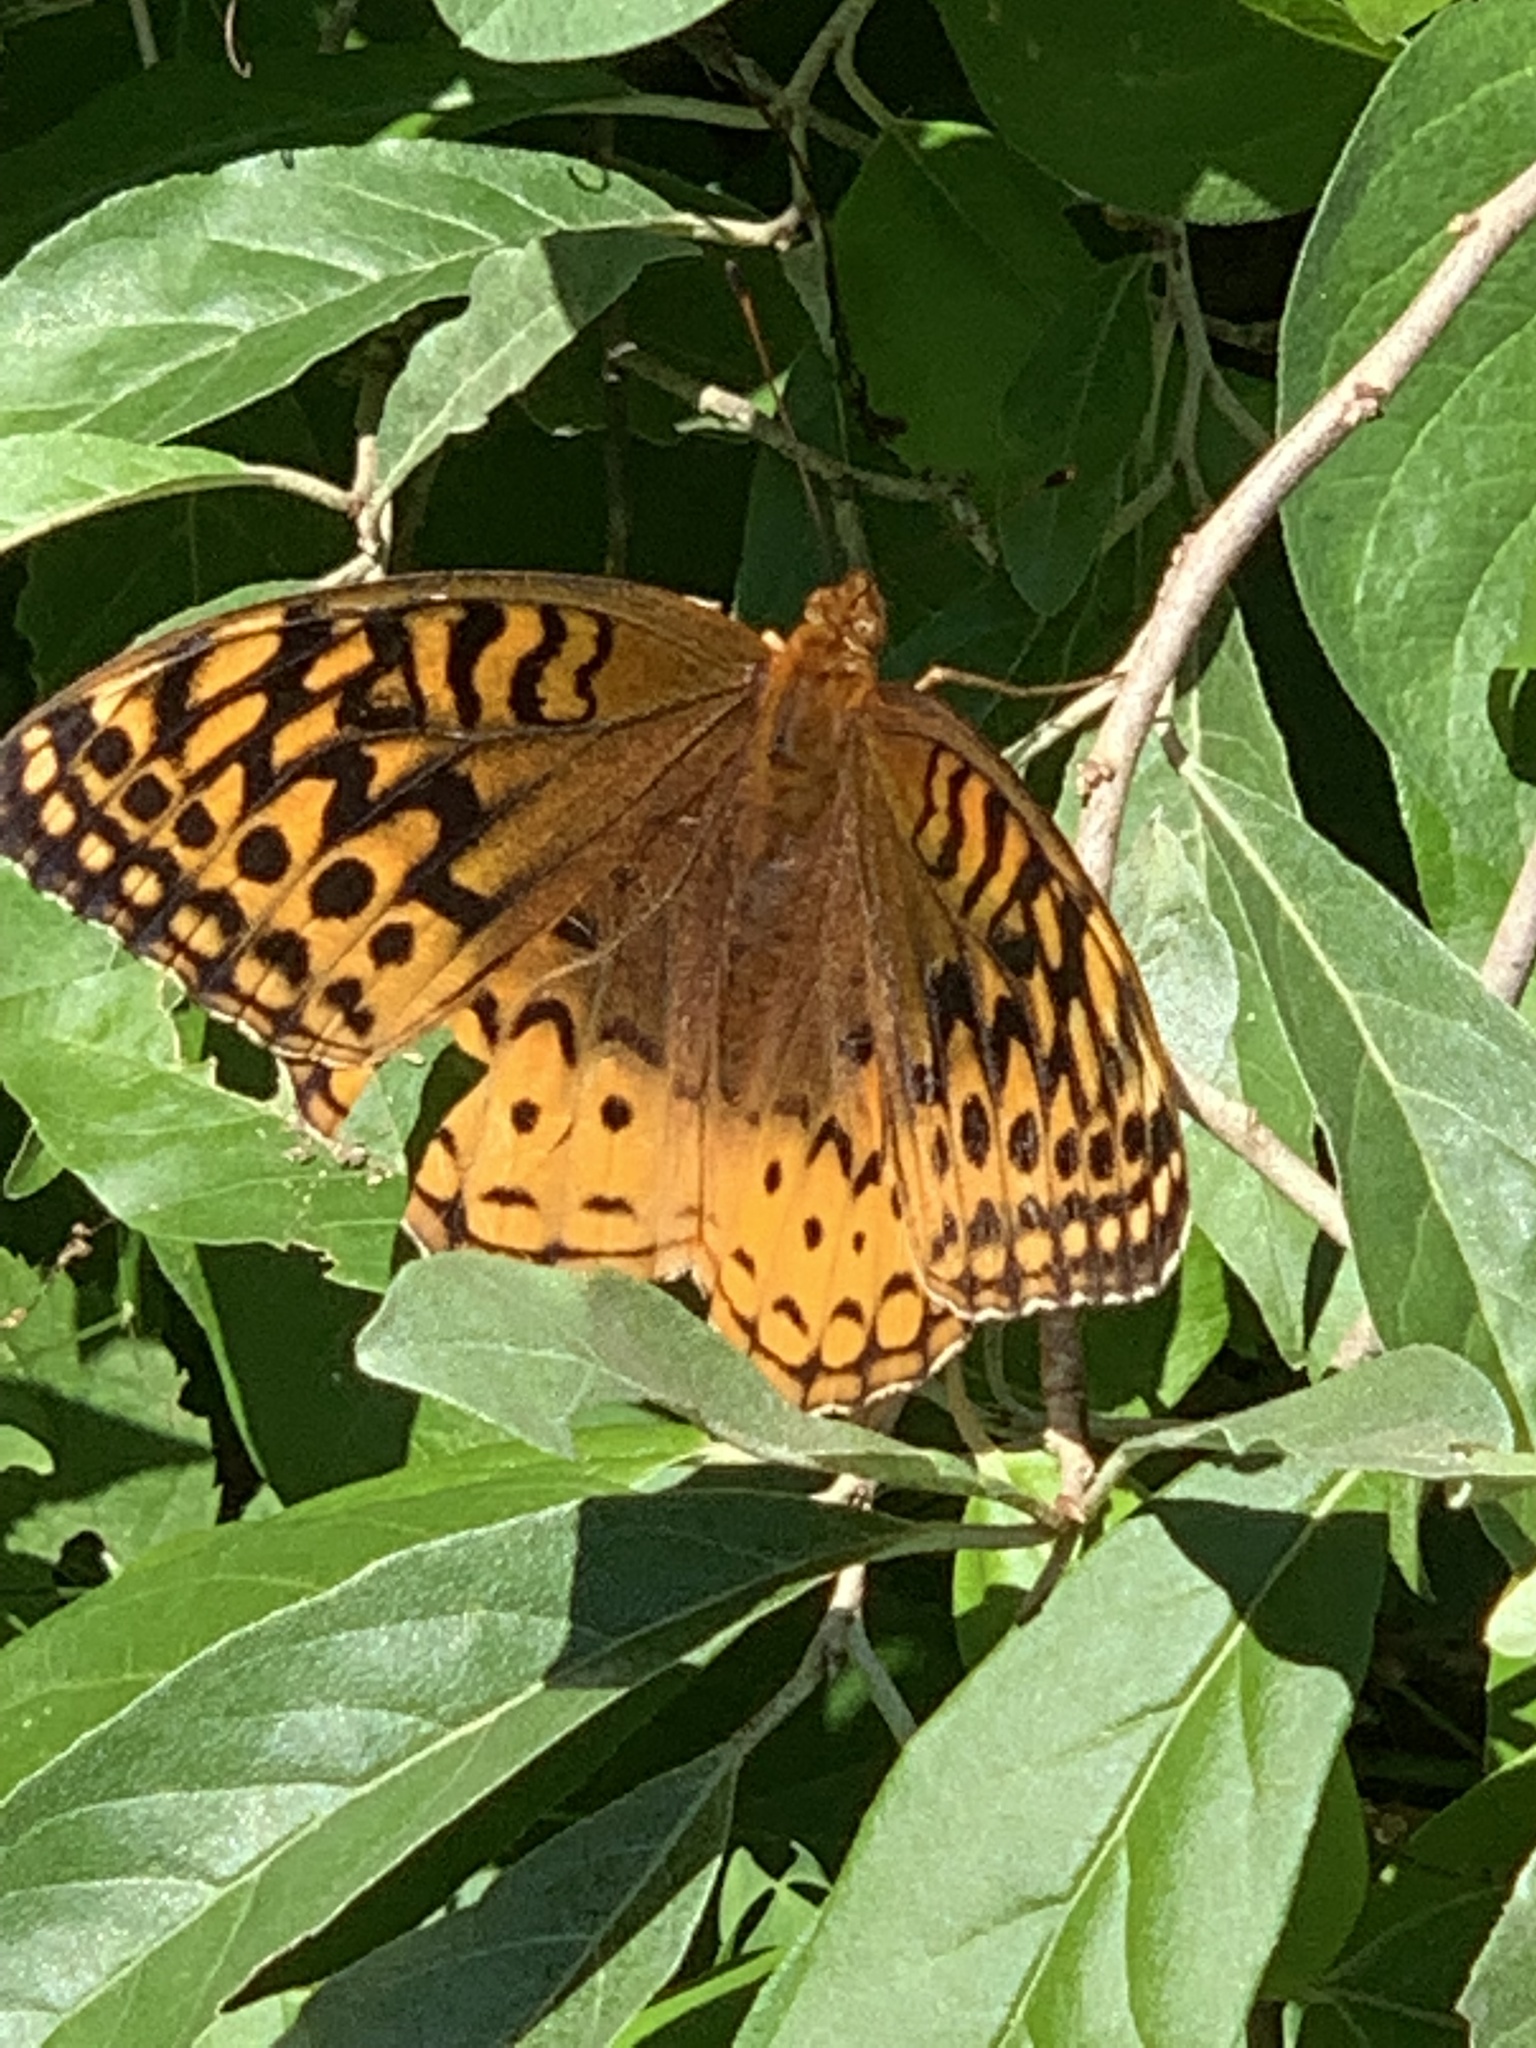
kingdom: Animalia
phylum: Arthropoda
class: Insecta
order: Lepidoptera
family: Nymphalidae
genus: Speyeria
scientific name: Speyeria cybele
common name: Great spangled fritillary
